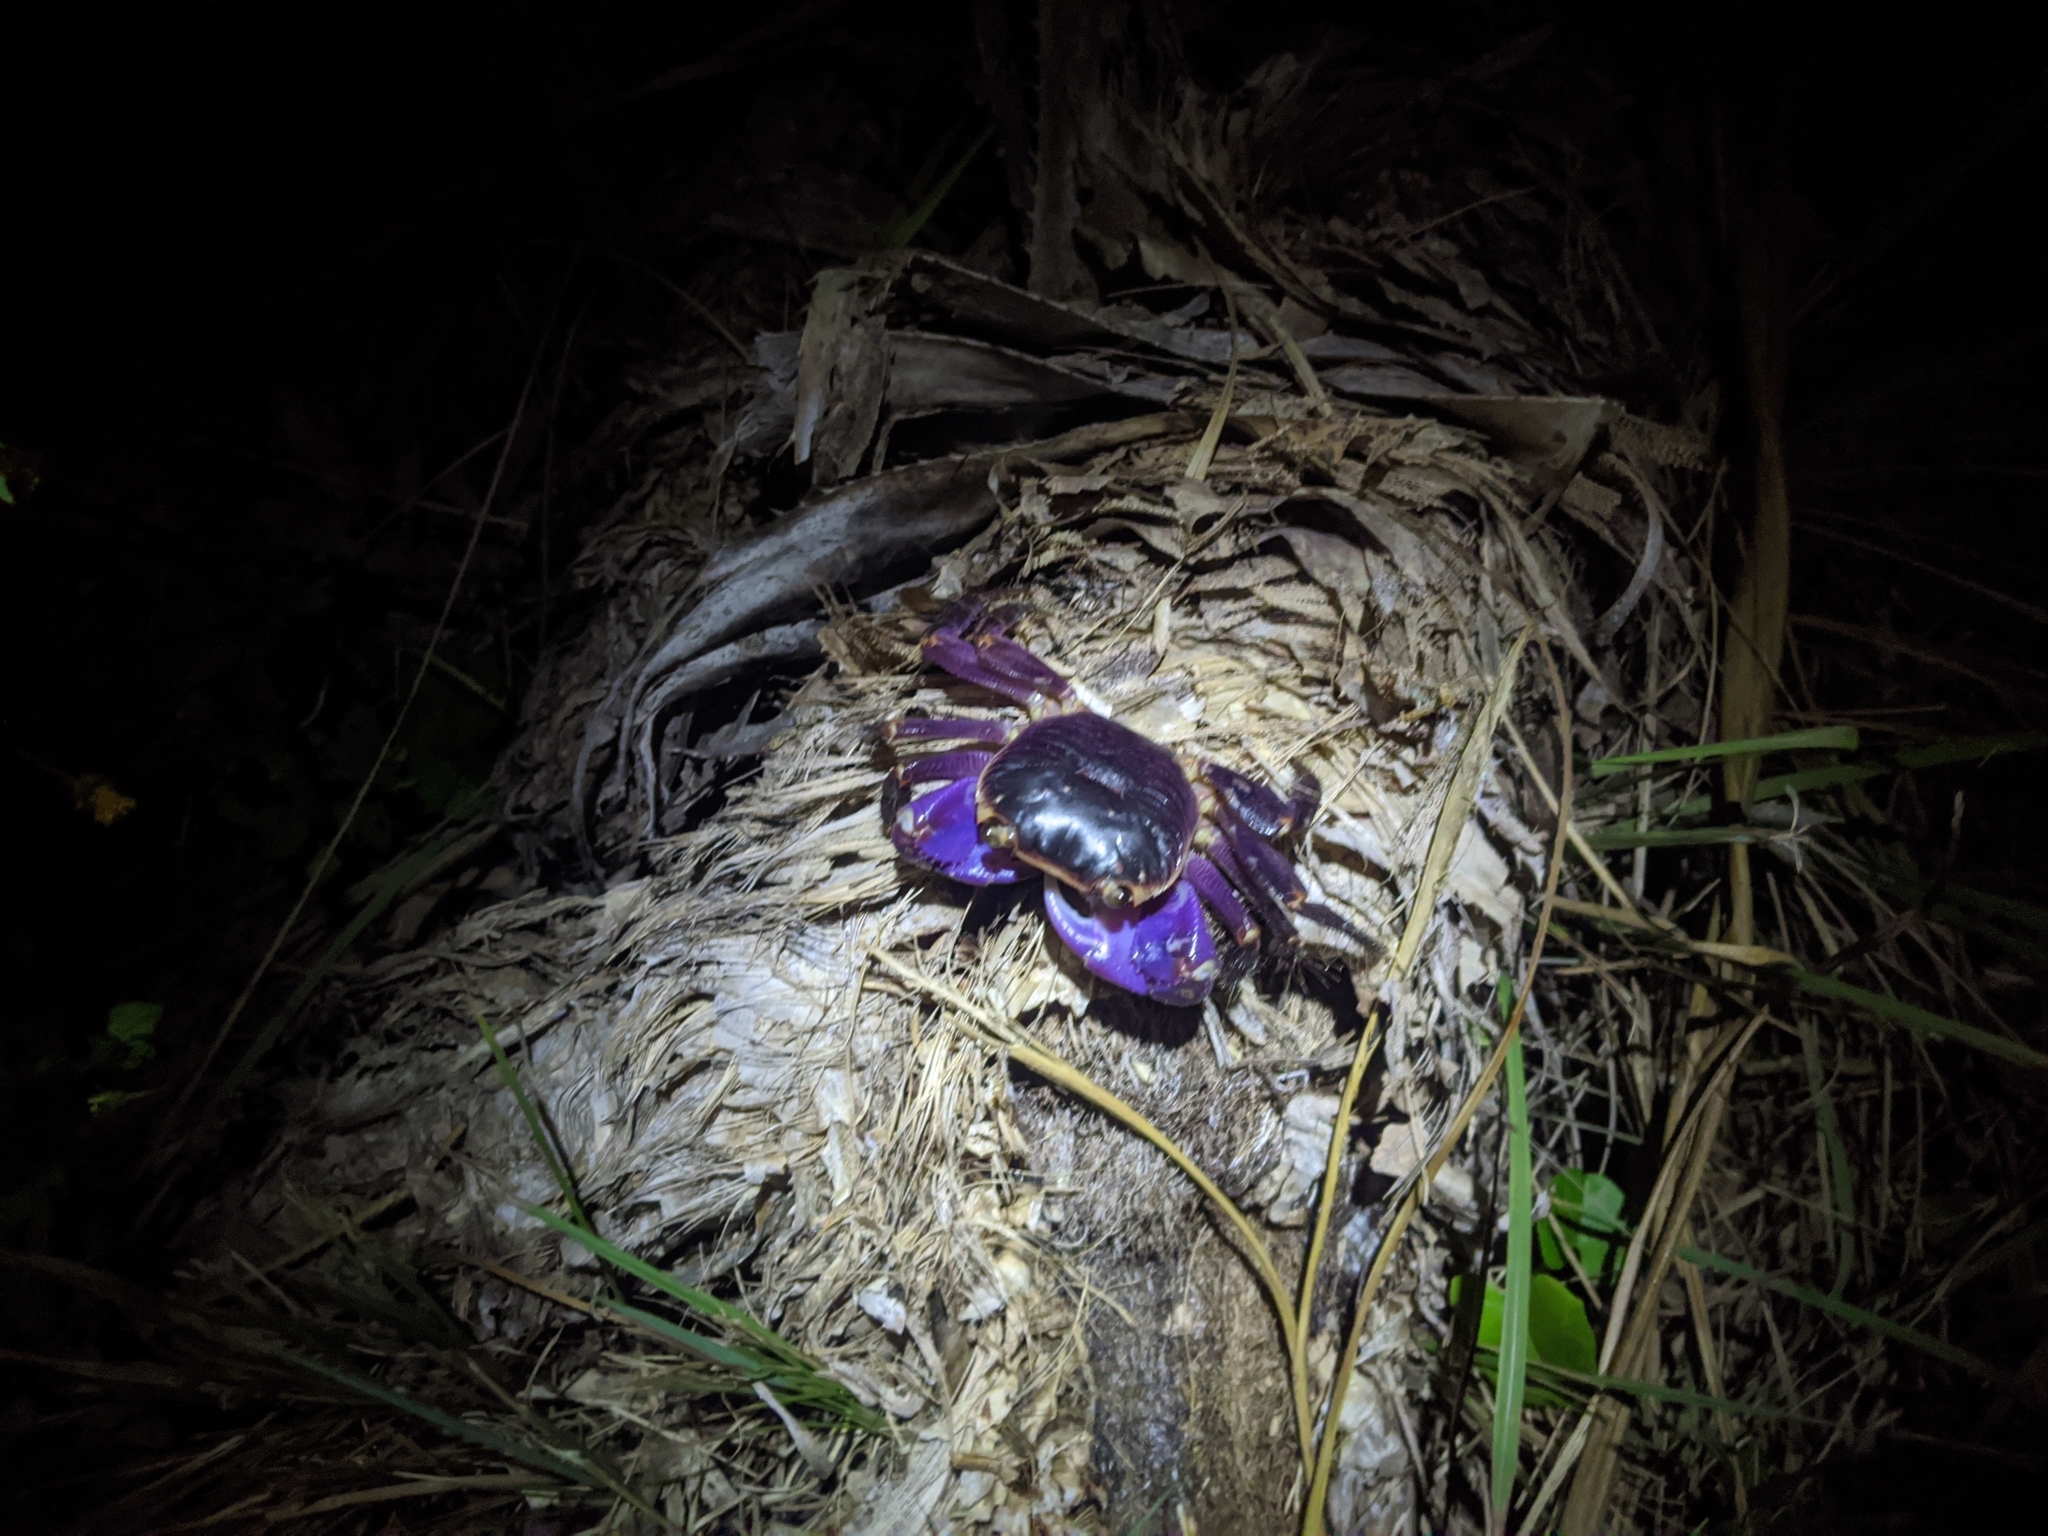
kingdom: Animalia
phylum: Arthropoda
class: Malacostraca
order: Decapoda
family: Grapsidae
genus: Geograpsus
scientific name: Geograpsus grayi
